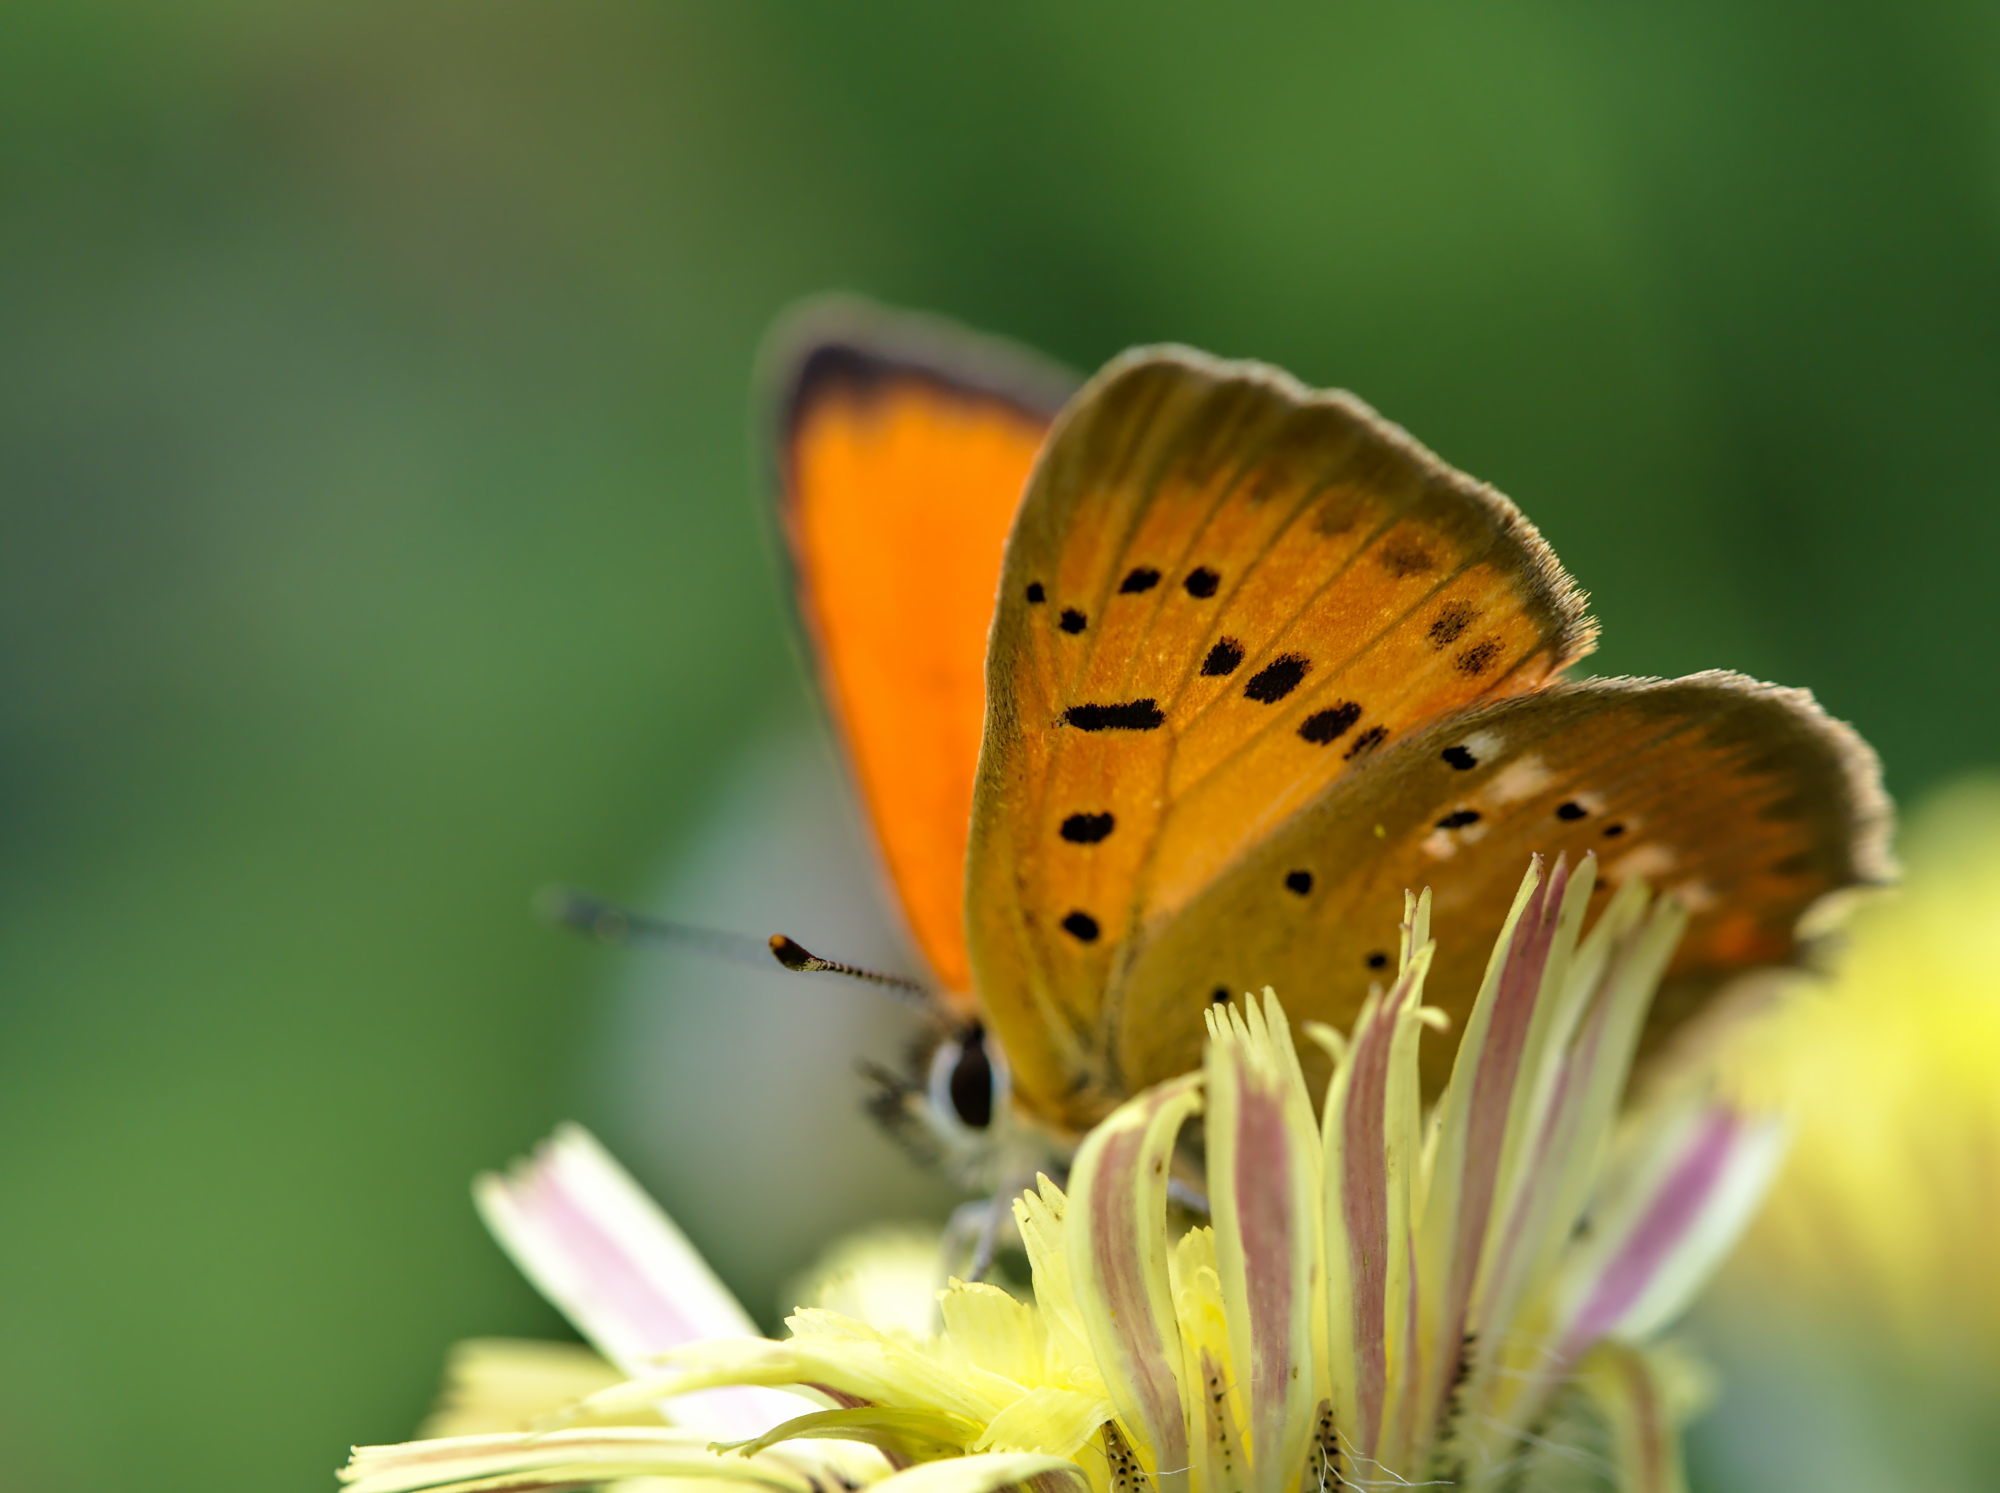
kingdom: Animalia
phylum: Arthropoda
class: Insecta
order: Lepidoptera
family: Lycaenidae
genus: Lycaena
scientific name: Lycaena virgaureae
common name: Scarce copper
